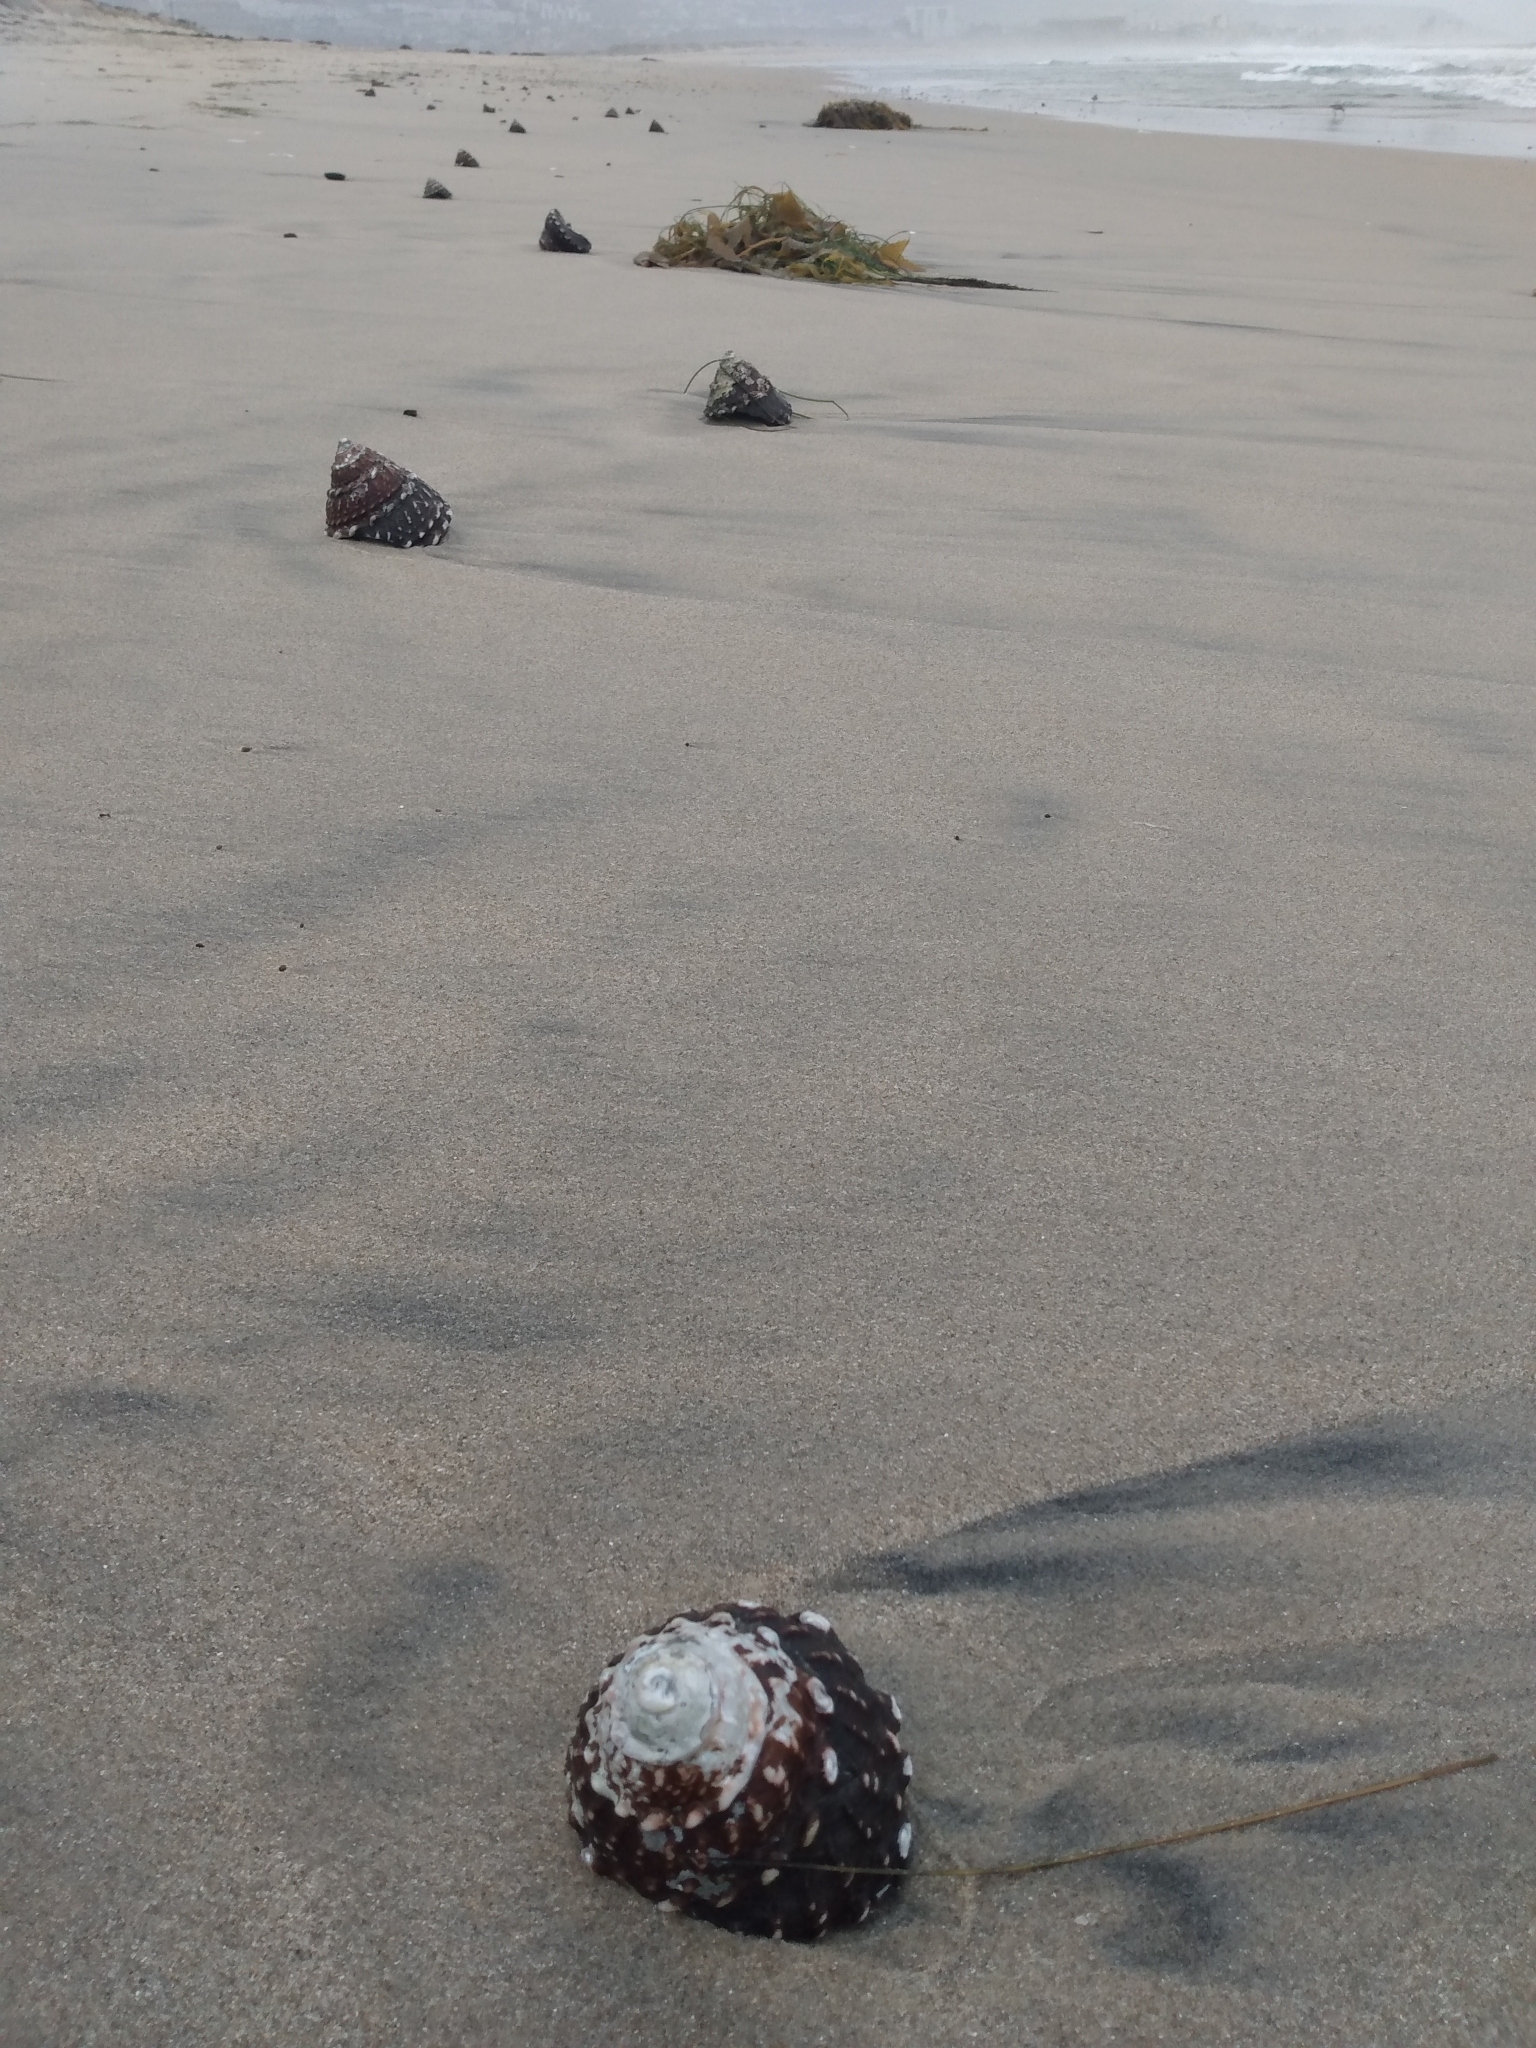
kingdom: Animalia
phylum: Mollusca
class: Gastropoda
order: Trochida
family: Turbinidae
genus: Megastraea
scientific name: Megastraea undosa
